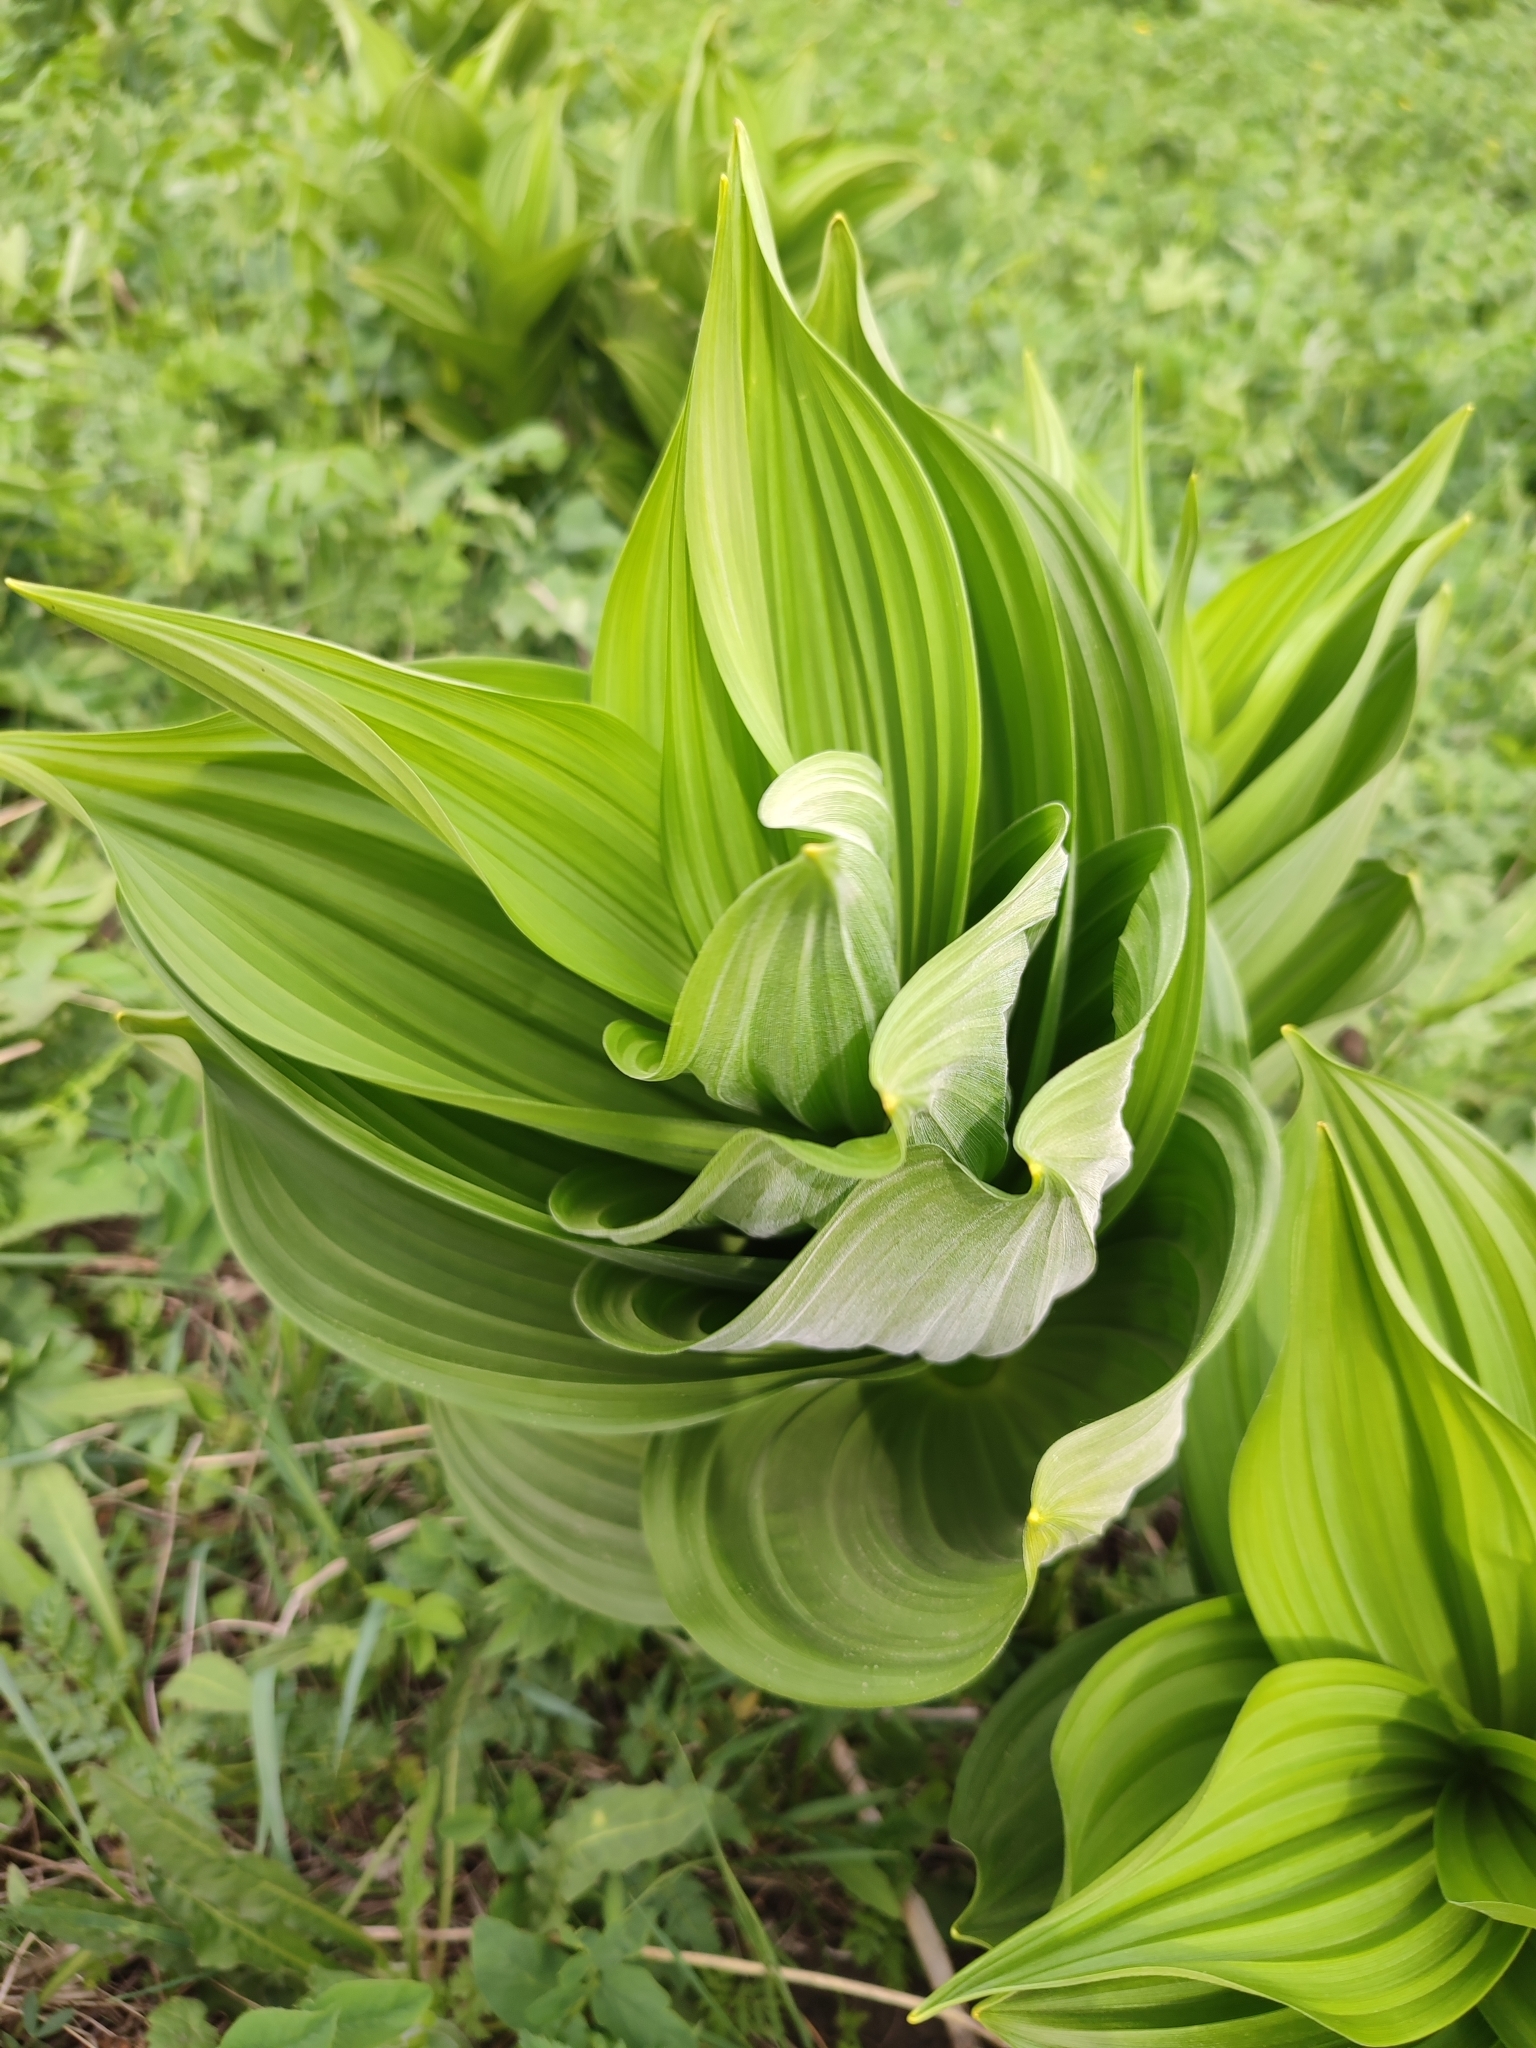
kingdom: Plantae
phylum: Tracheophyta
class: Liliopsida
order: Liliales
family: Melanthiaceae
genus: Veratrum
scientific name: Veratrum lobelianum
